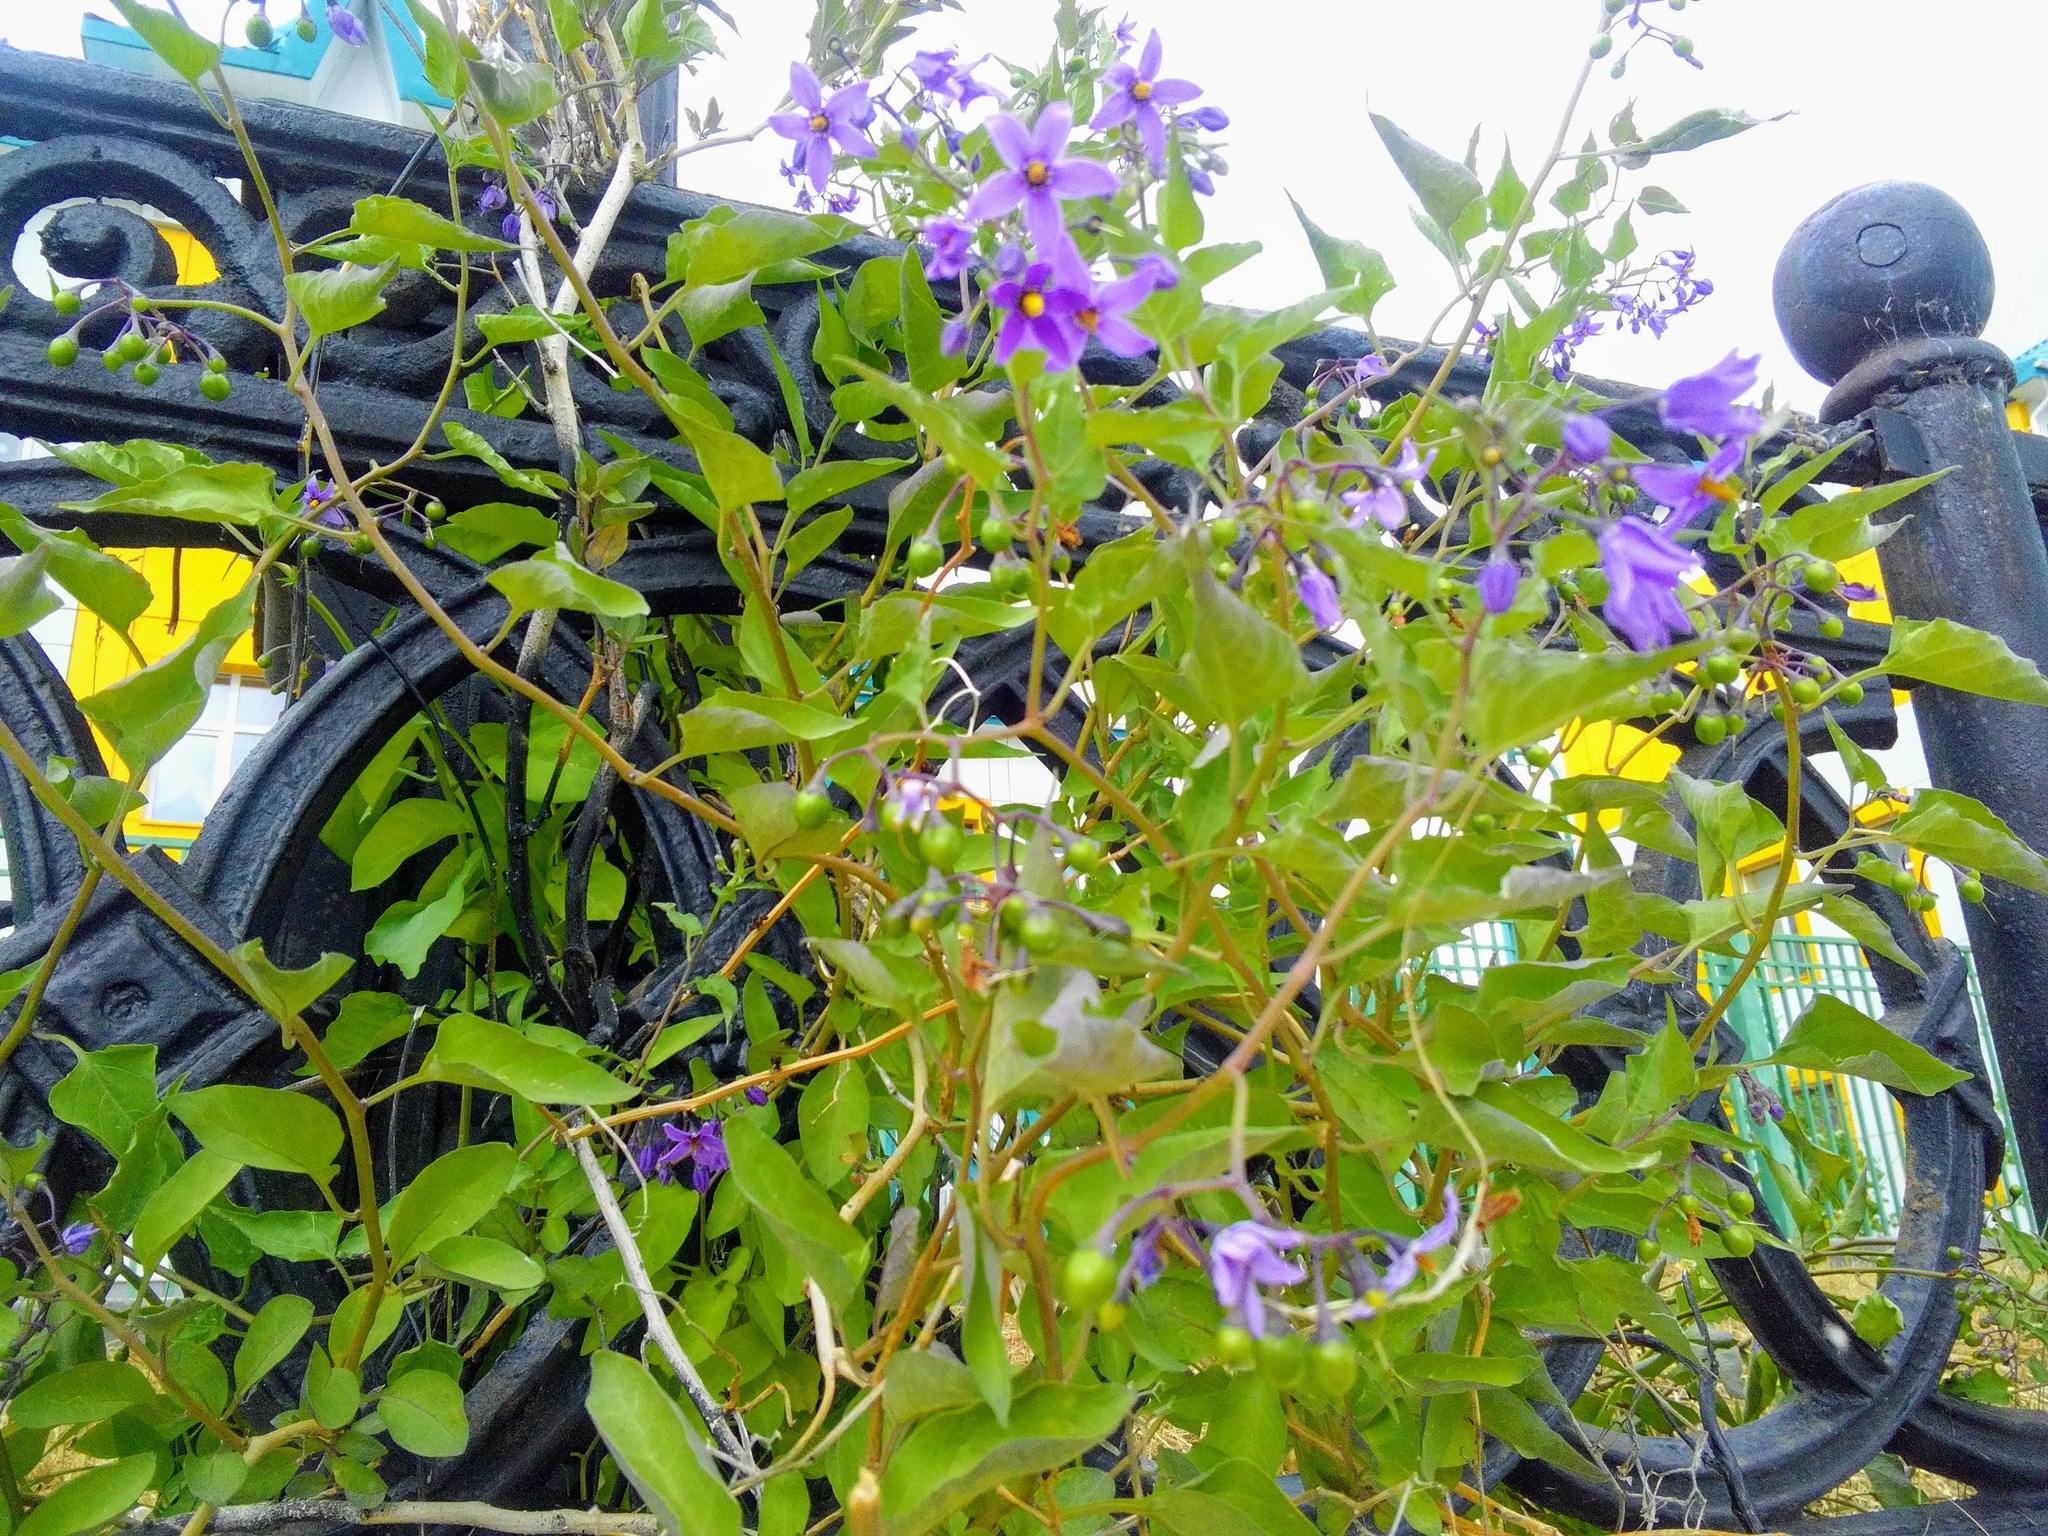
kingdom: Plantae
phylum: Tracheophyta
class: Magnoliopsida
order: Solanales
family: Solanaceae
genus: Solanum
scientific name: Solanum dulcamara
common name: Climbing nightshade
